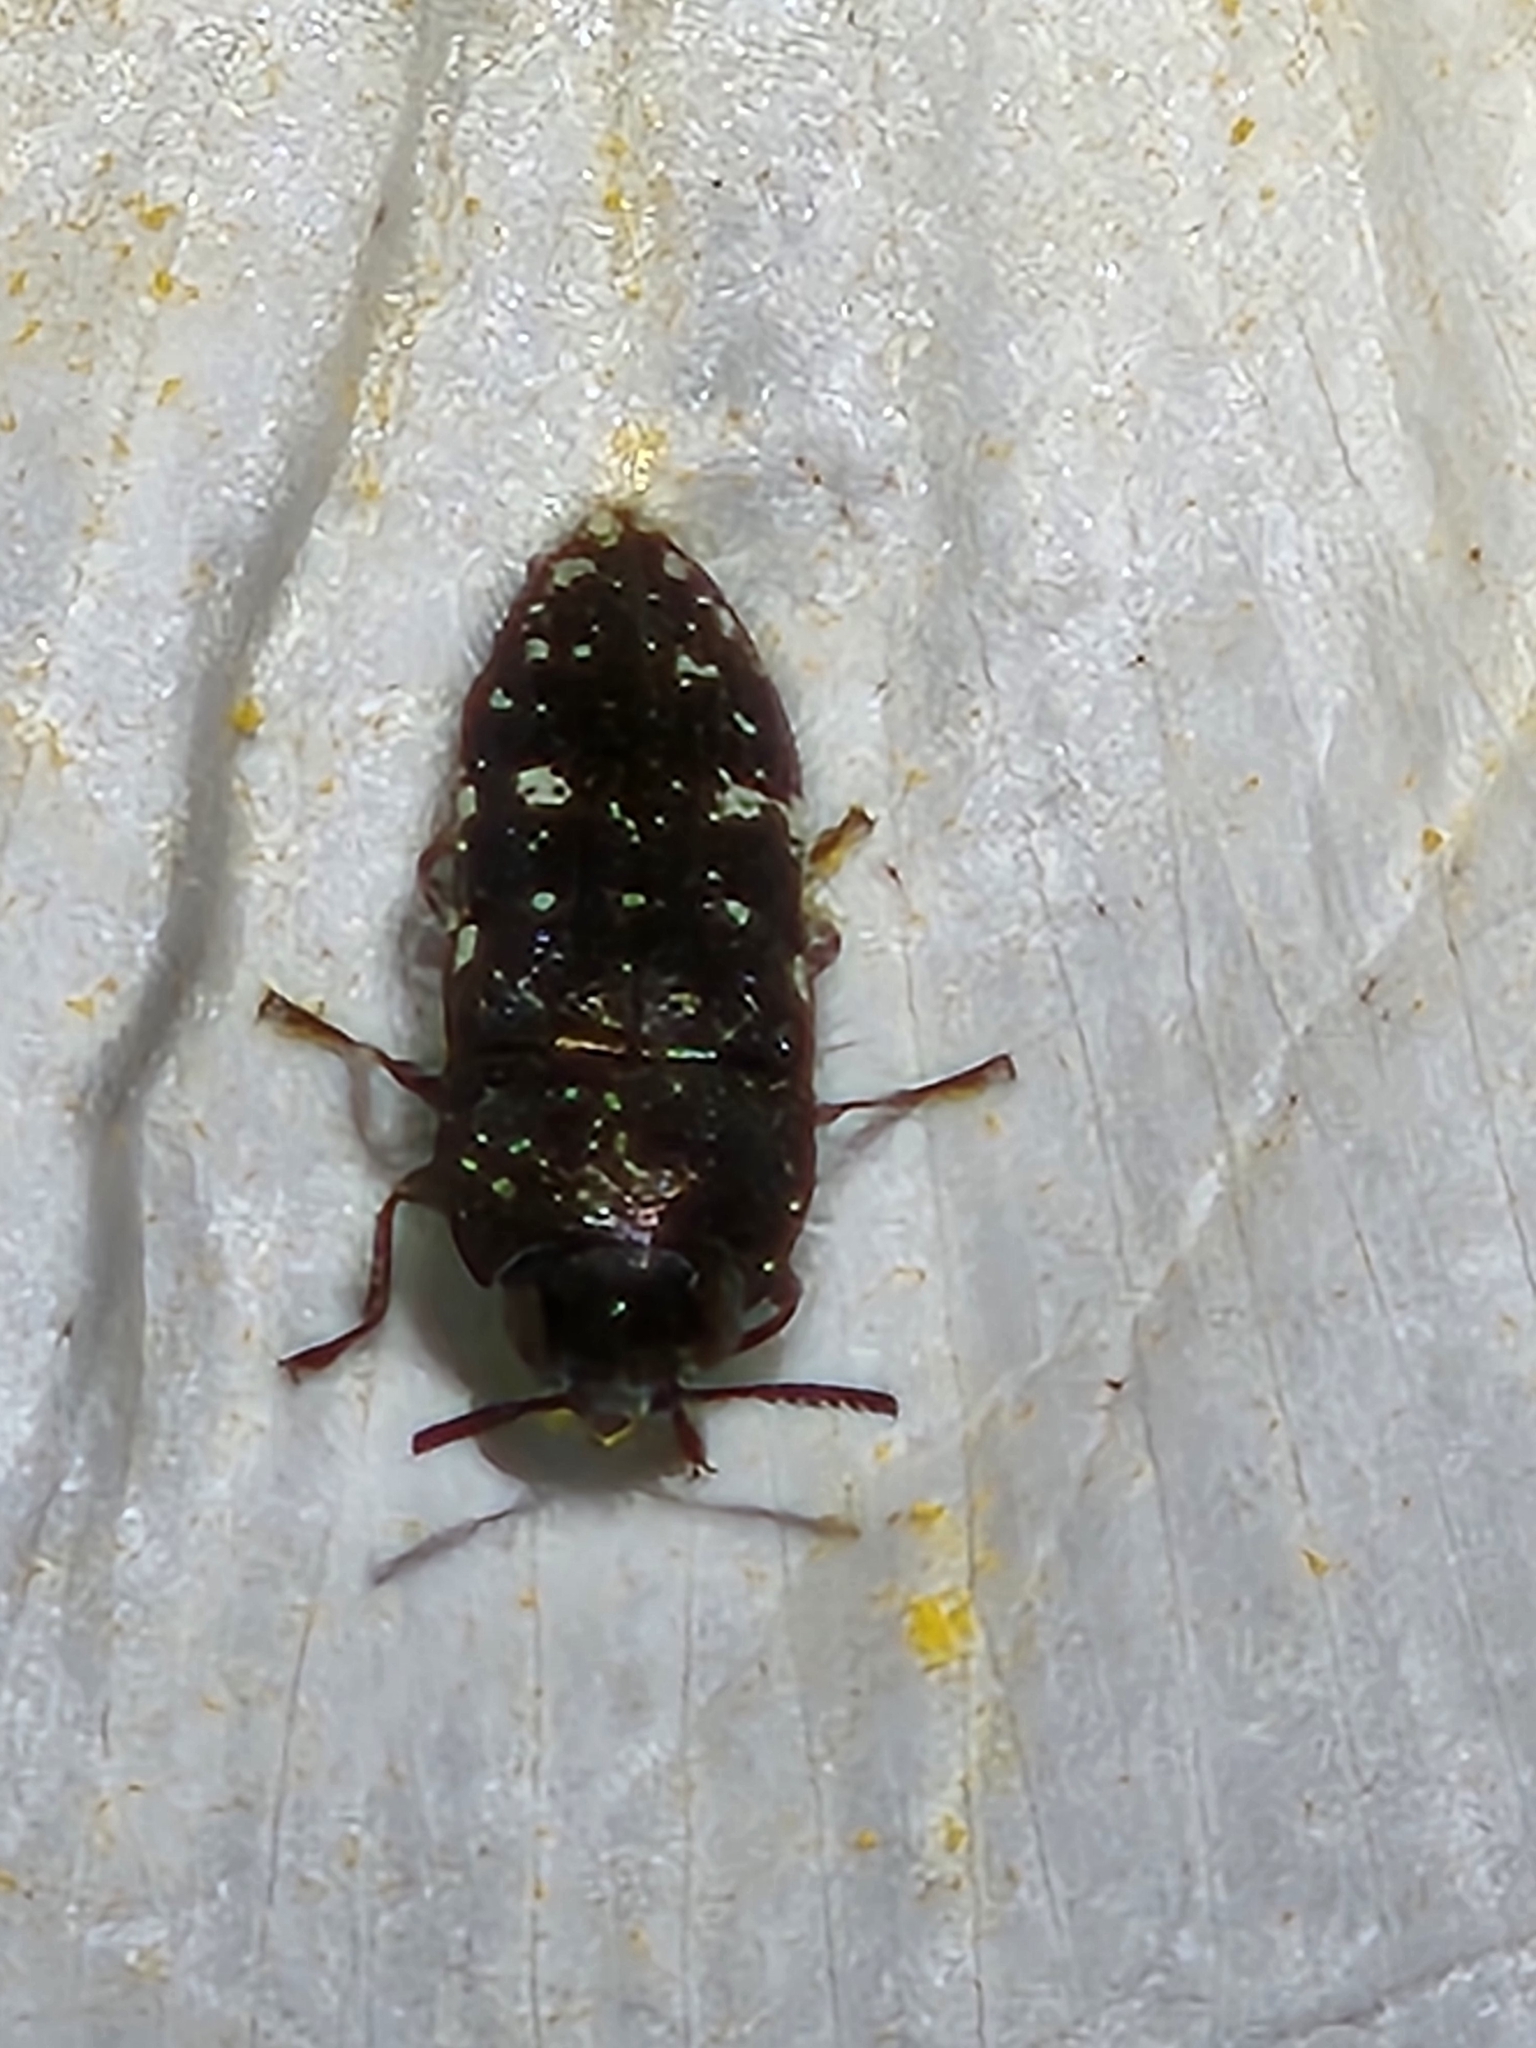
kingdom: Animalia
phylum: Arthropoda
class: Insecta
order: Coleoptera
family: Buprestidae
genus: Acmaeodera
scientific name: Acmaeodera ornatoides
